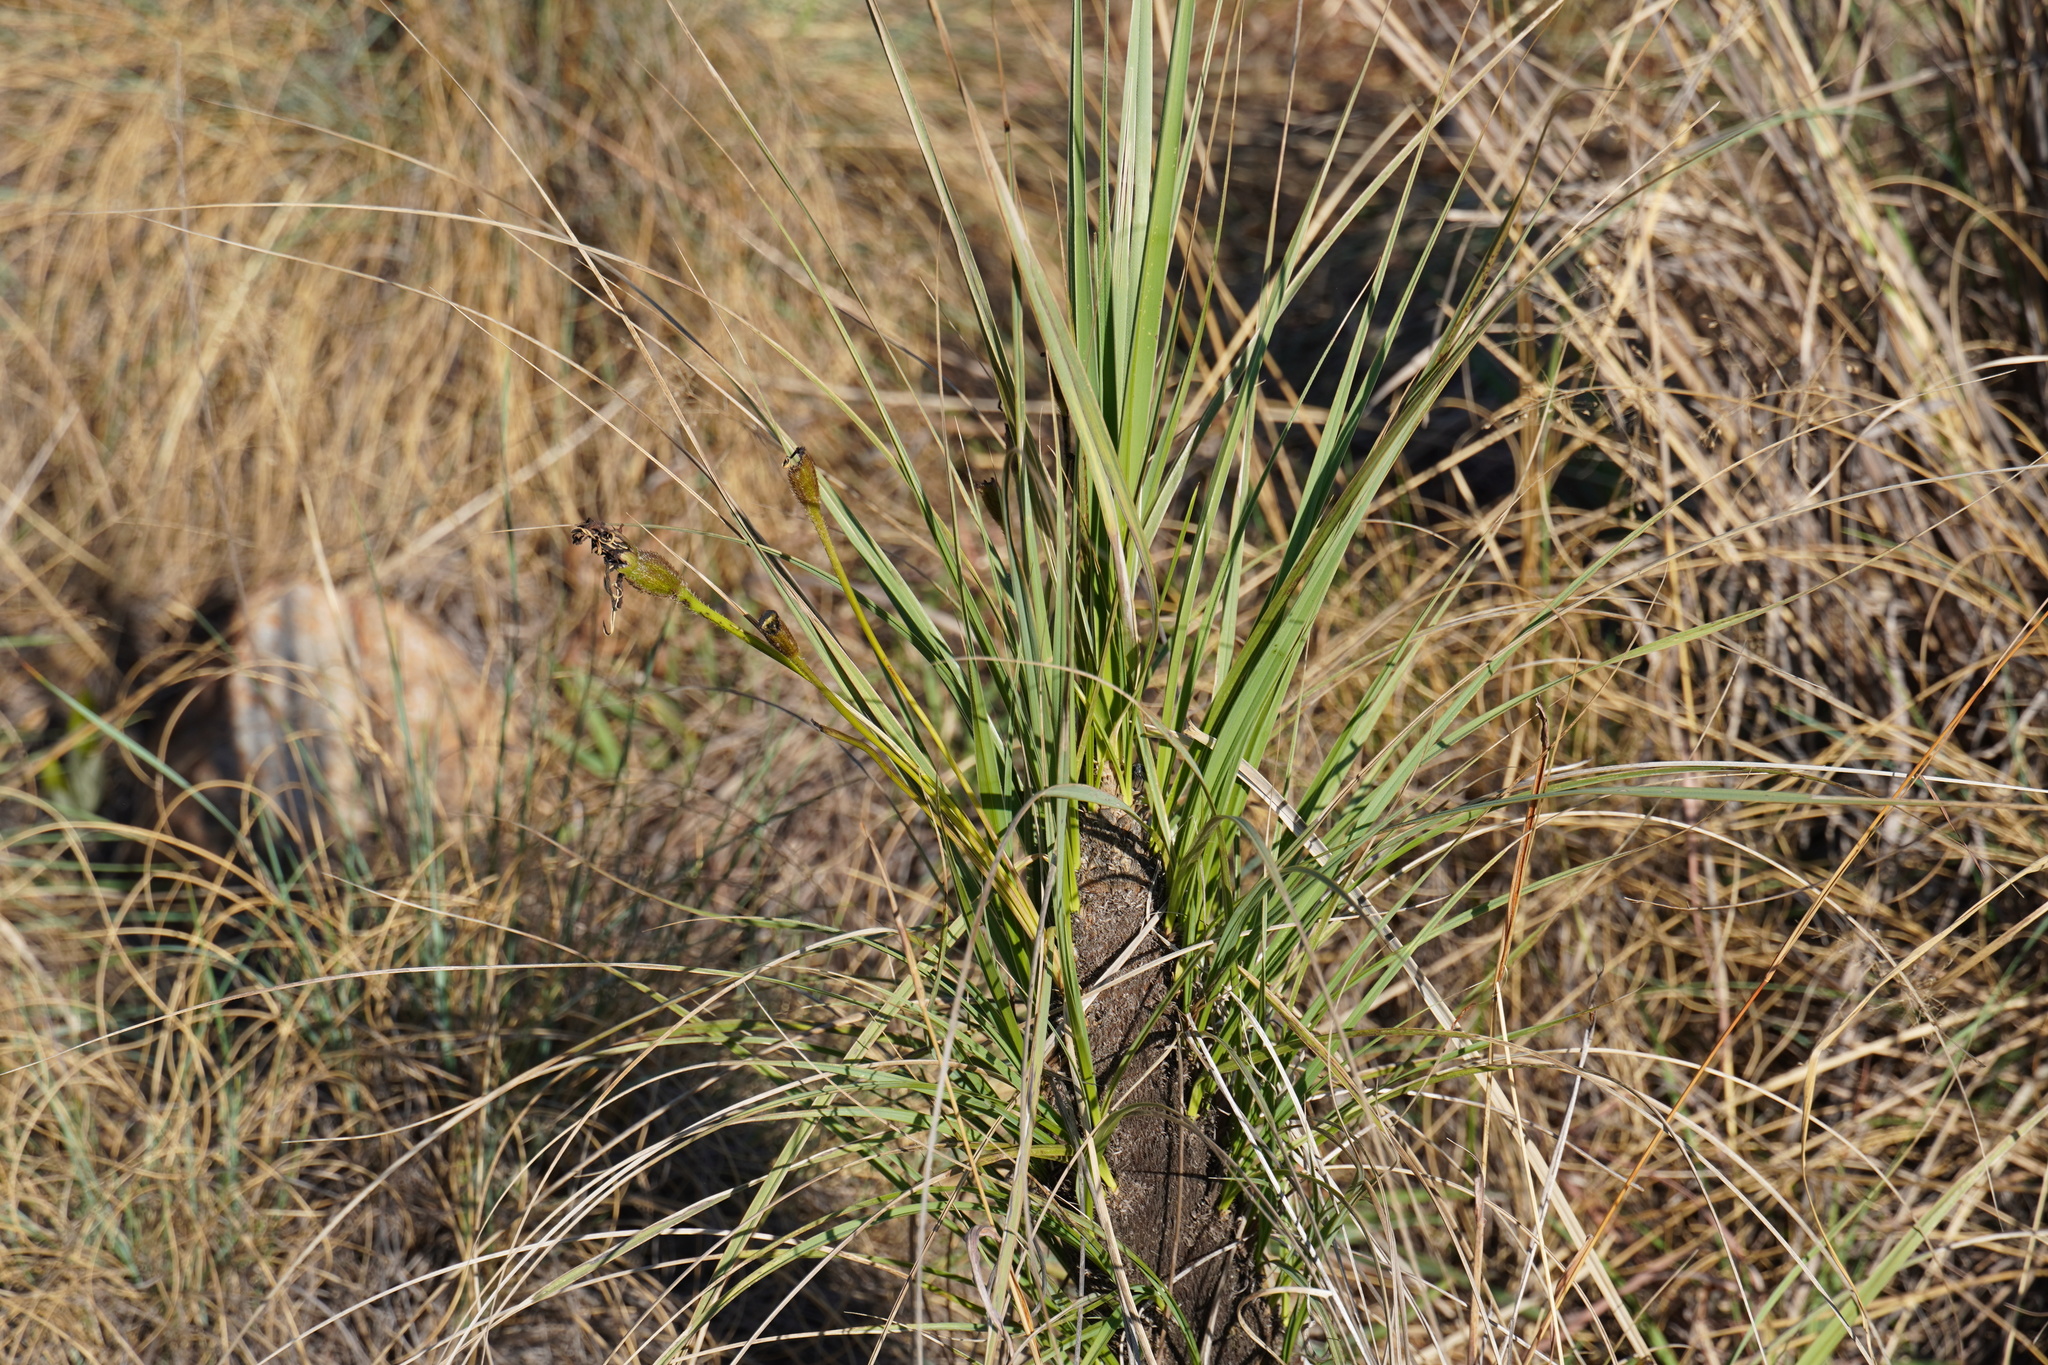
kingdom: Plantae
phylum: Tracheophyta
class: Liliopsida
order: Pandanales
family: Velloziaceae
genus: Xerophyta
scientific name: Xerophyta retinervis
